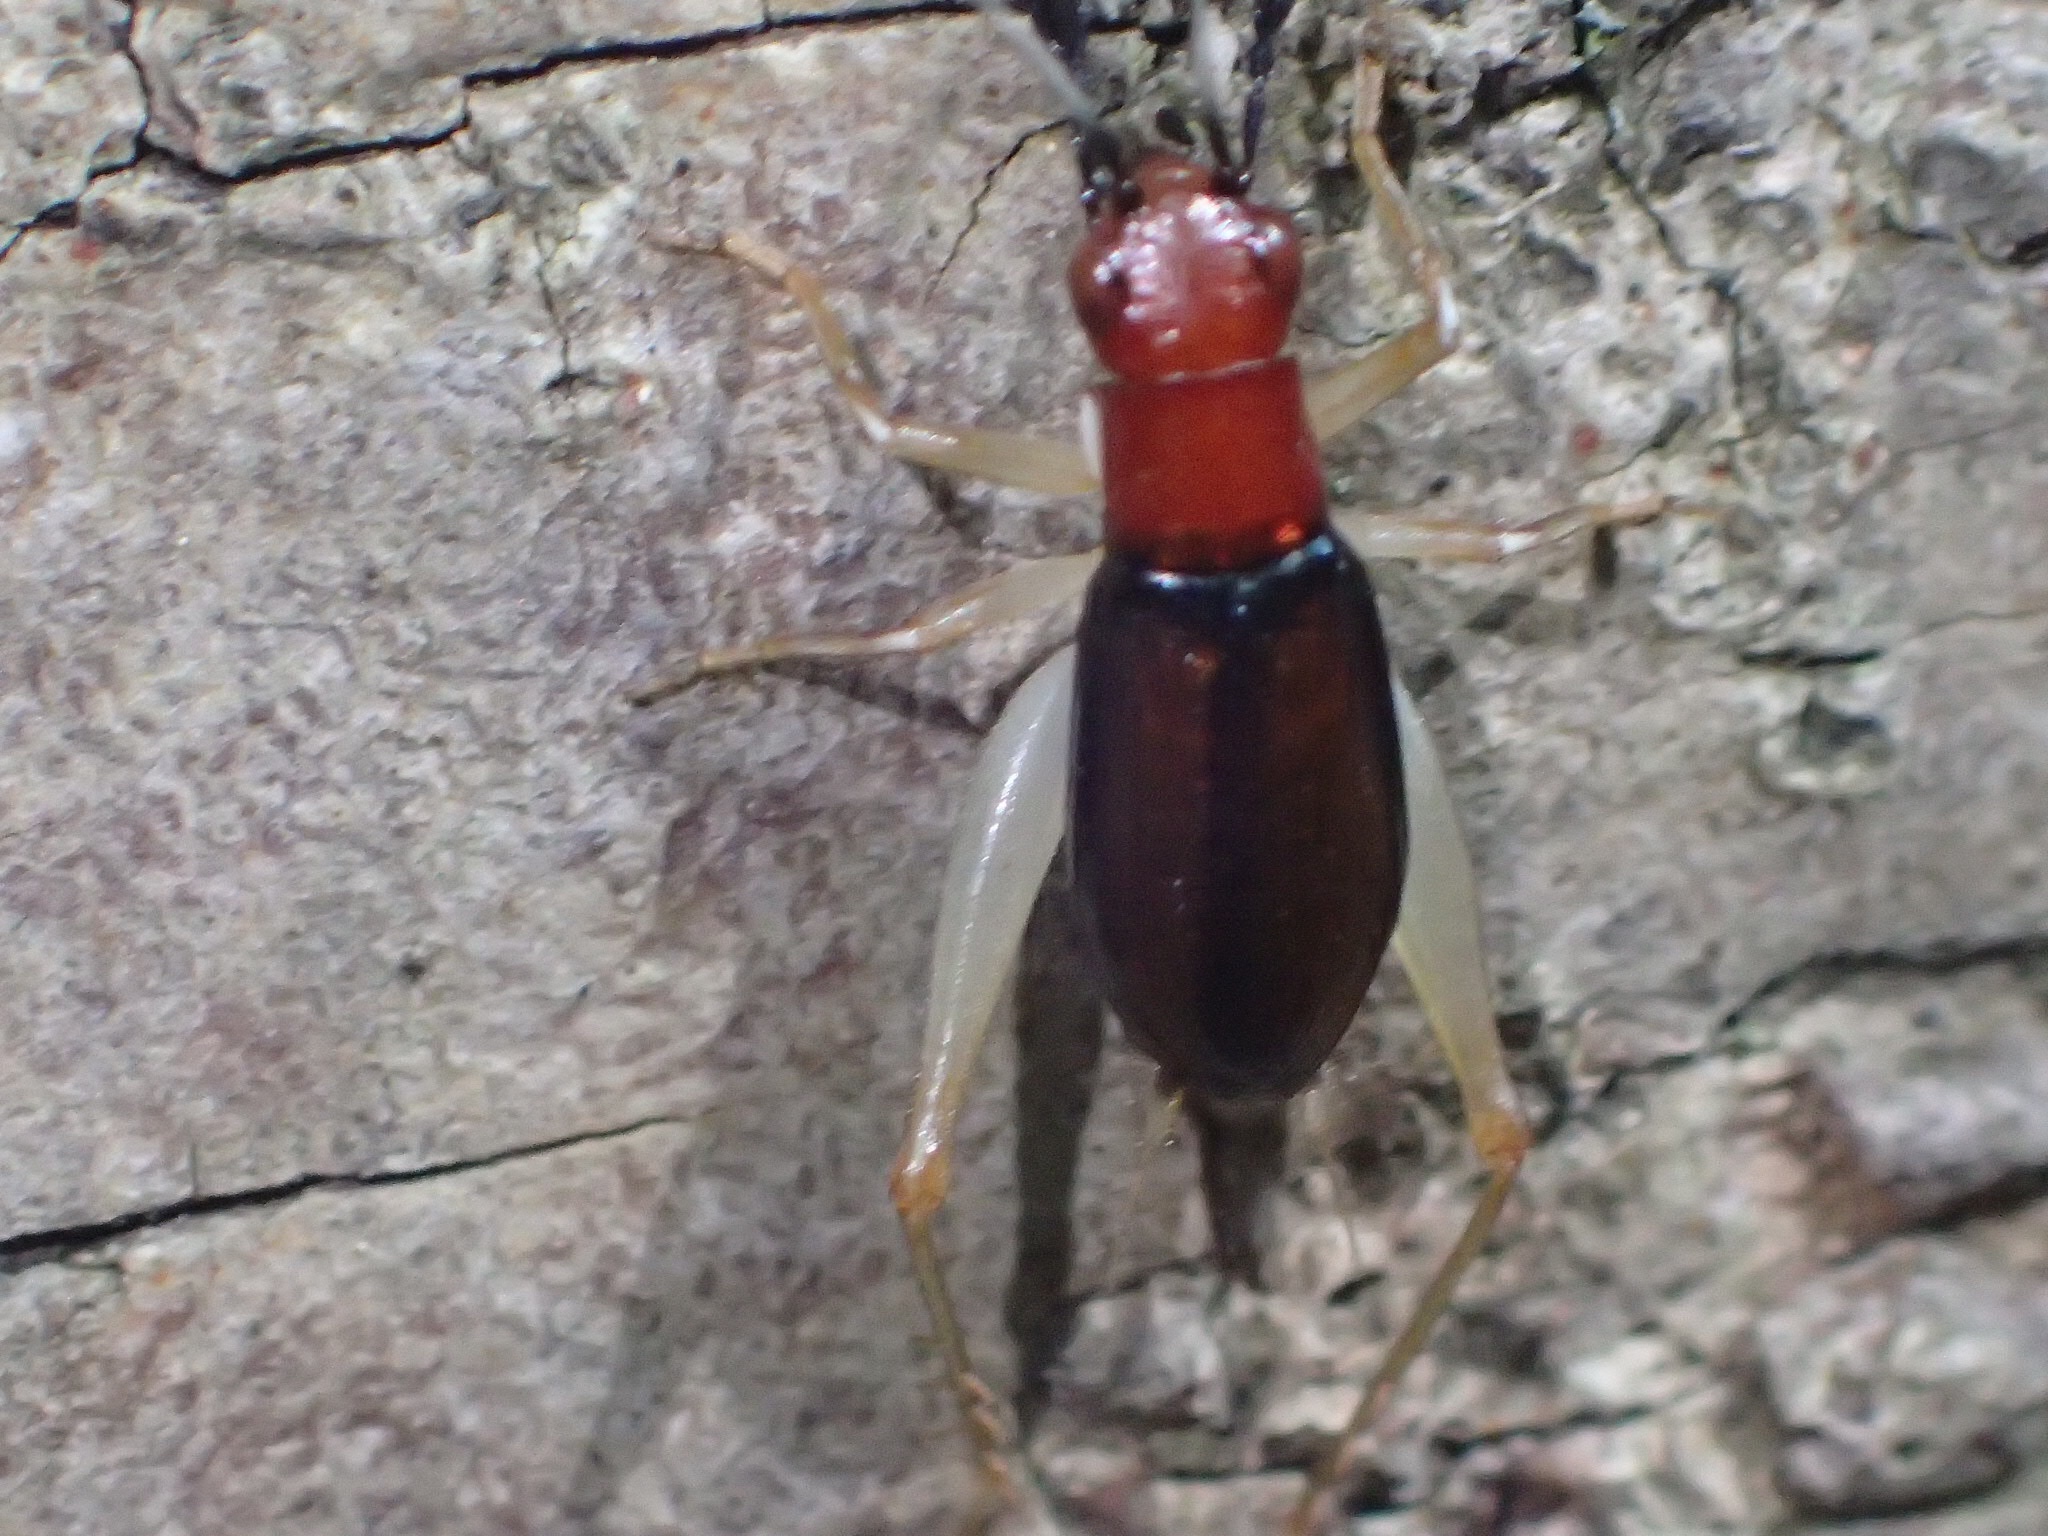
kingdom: Animalia
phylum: Arthropoda
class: Insecta
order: Orthoptera
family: Trigonidiidae
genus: Phyllopalpus
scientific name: Phyllopalpus pulchellus
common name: Handsome trig
